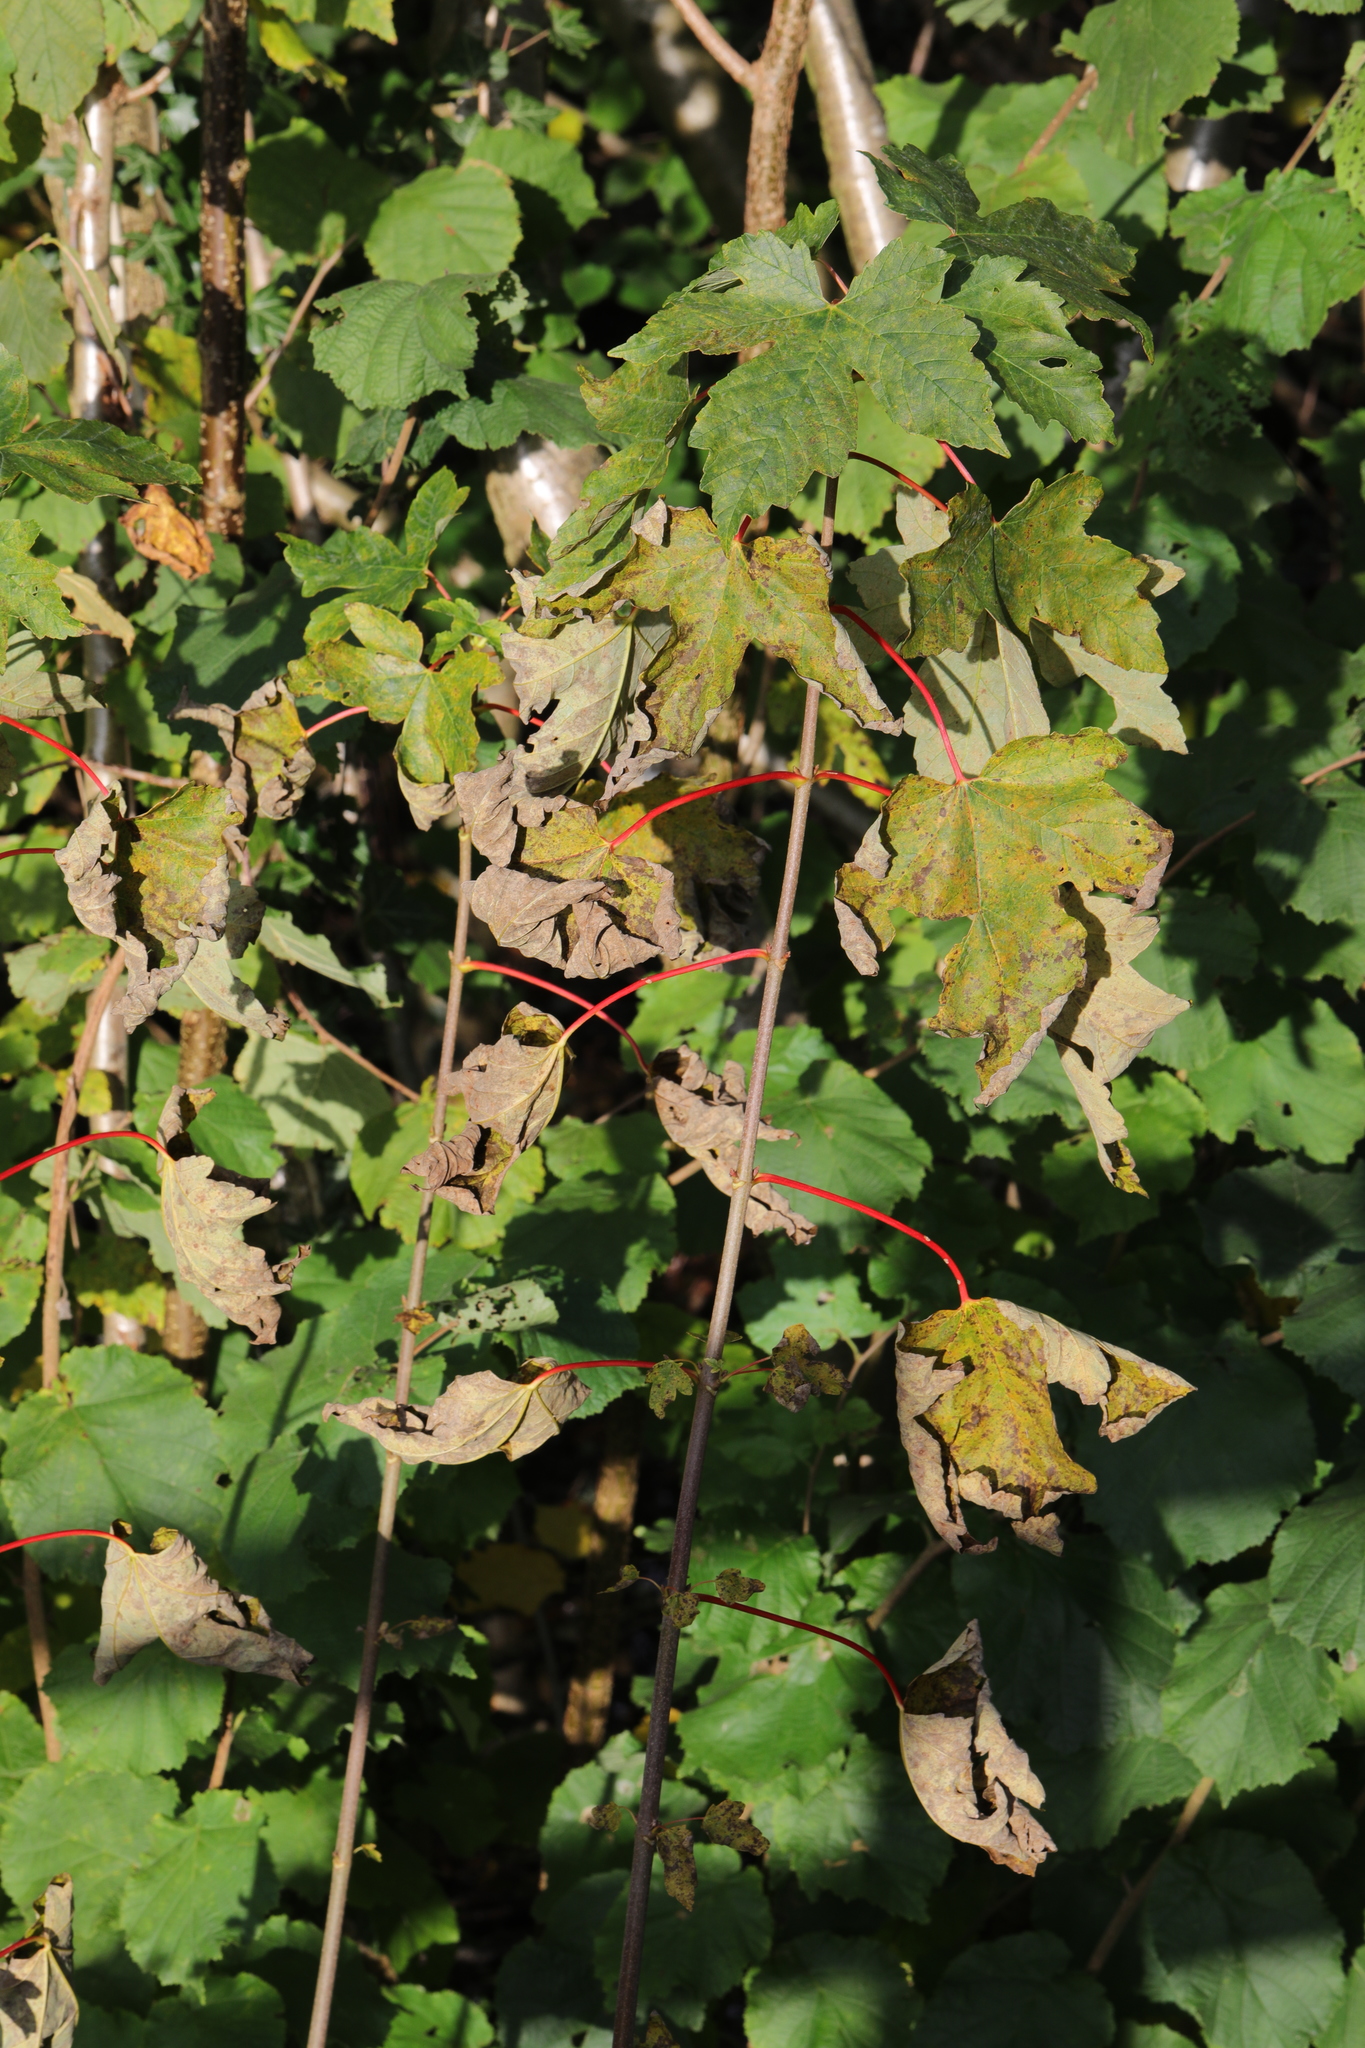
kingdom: Plantae
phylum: Tracheophyta
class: Magnoliopsida
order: Sapindales
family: Sapindaceae
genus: Acer
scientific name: Acer pseudoplatanus
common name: Sycamore
